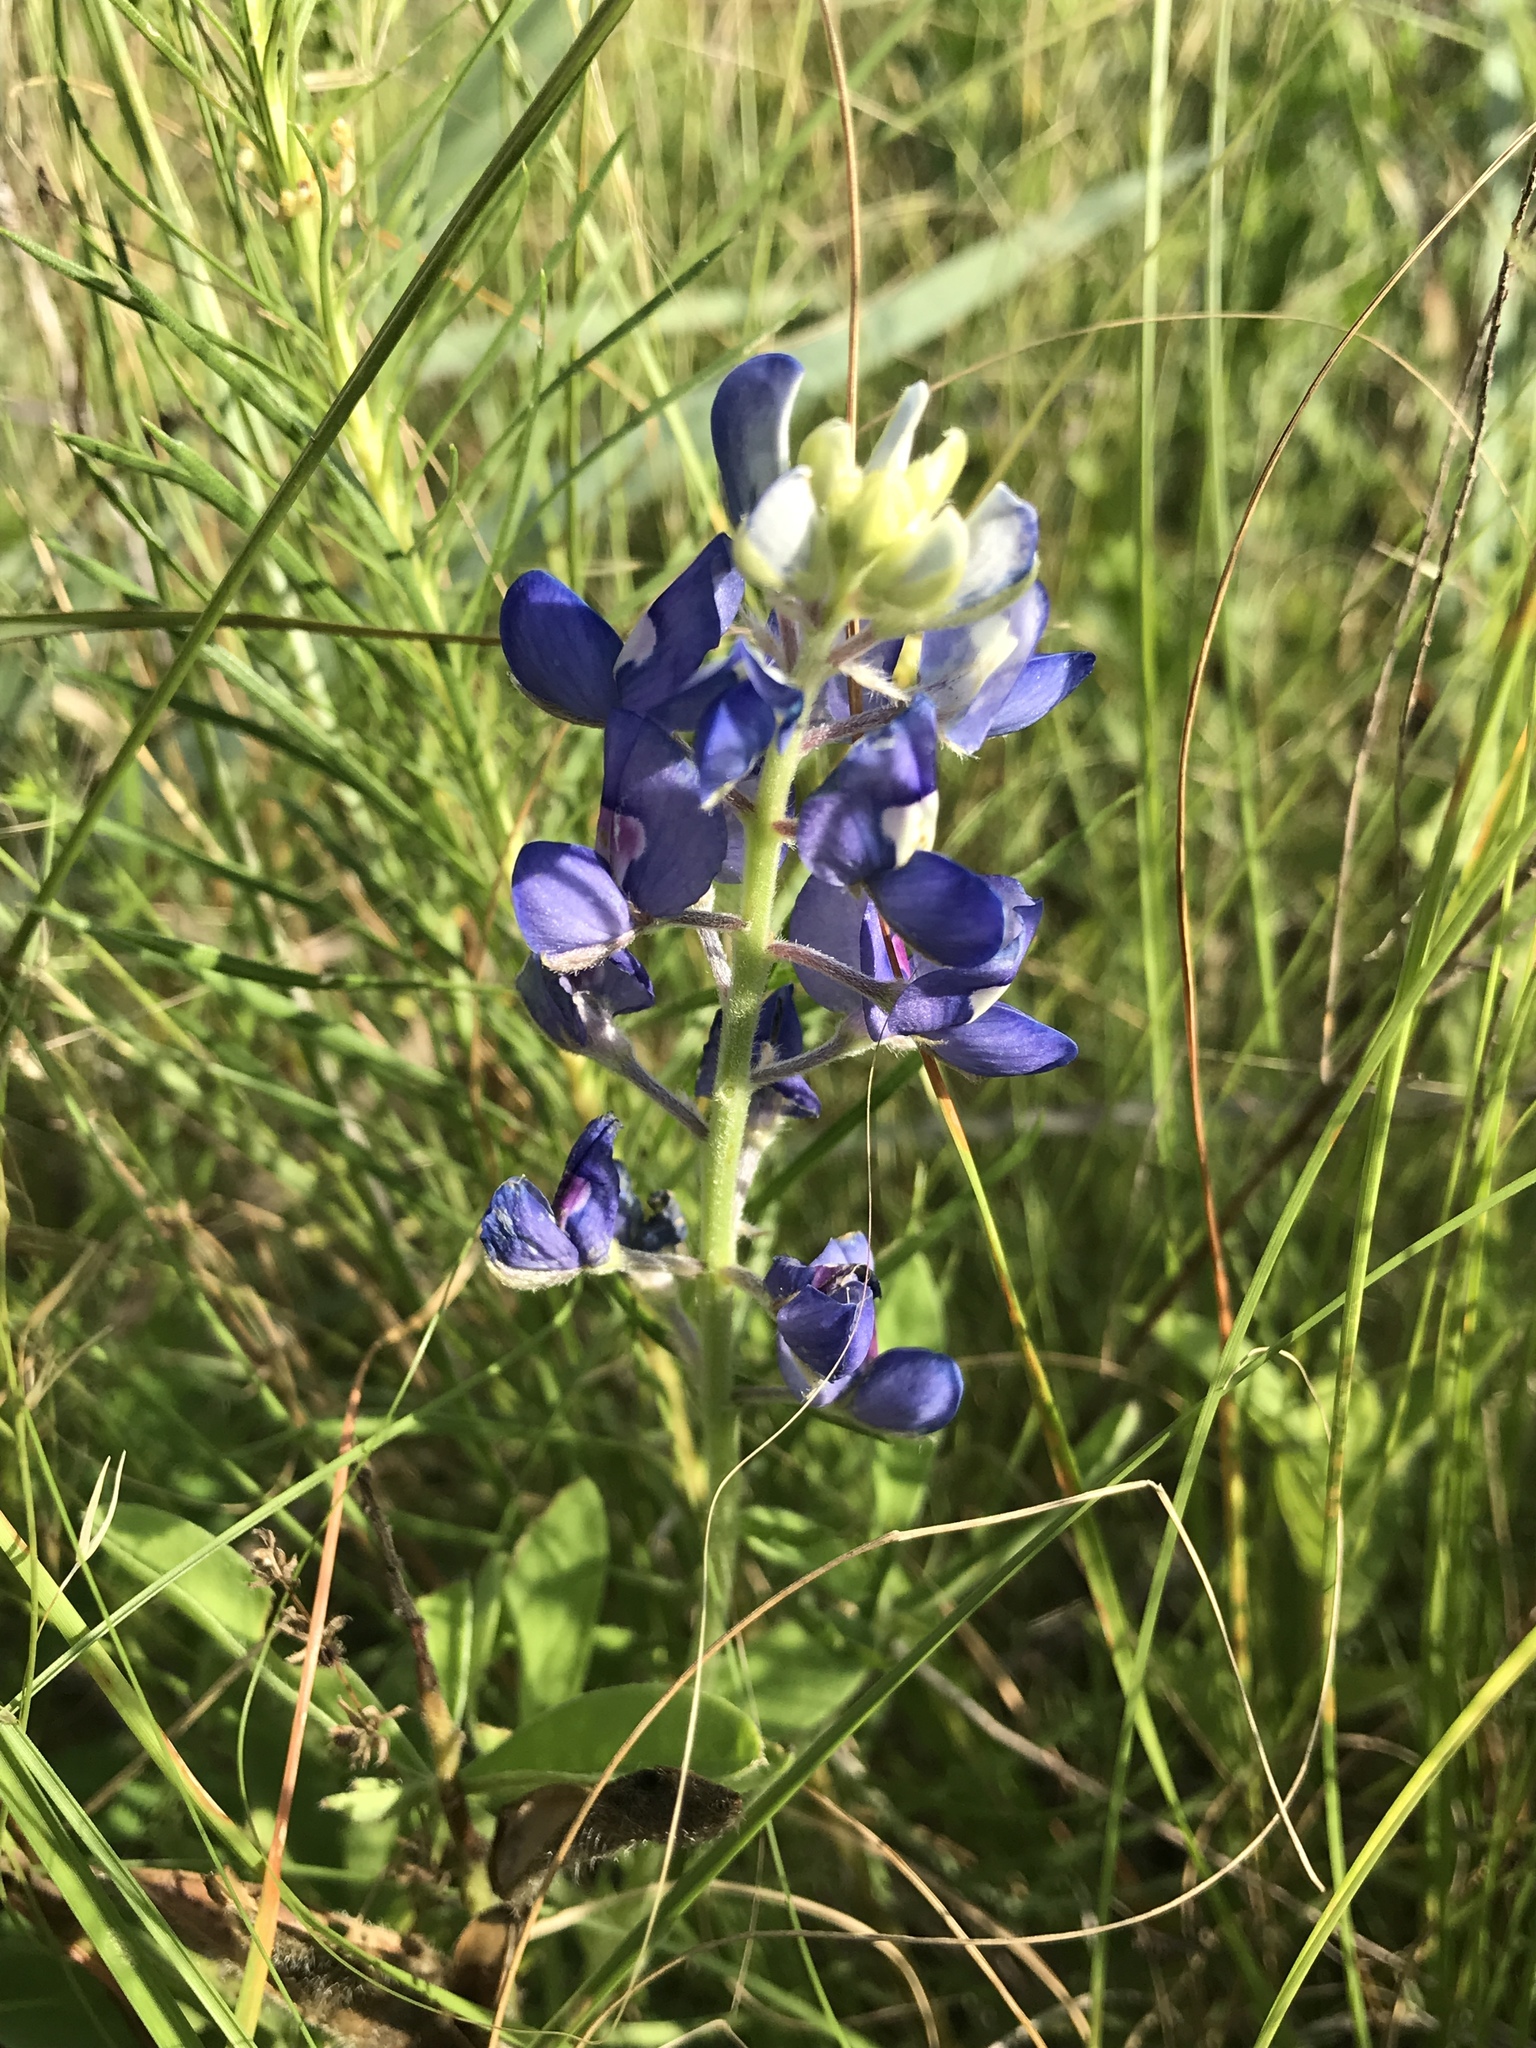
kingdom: Plantae
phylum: Tracheophyta
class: Magnoliopsida
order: Fabales
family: Fabaceae
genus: Lupinus
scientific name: Lupinus texensis
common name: Texas bluebonnet
